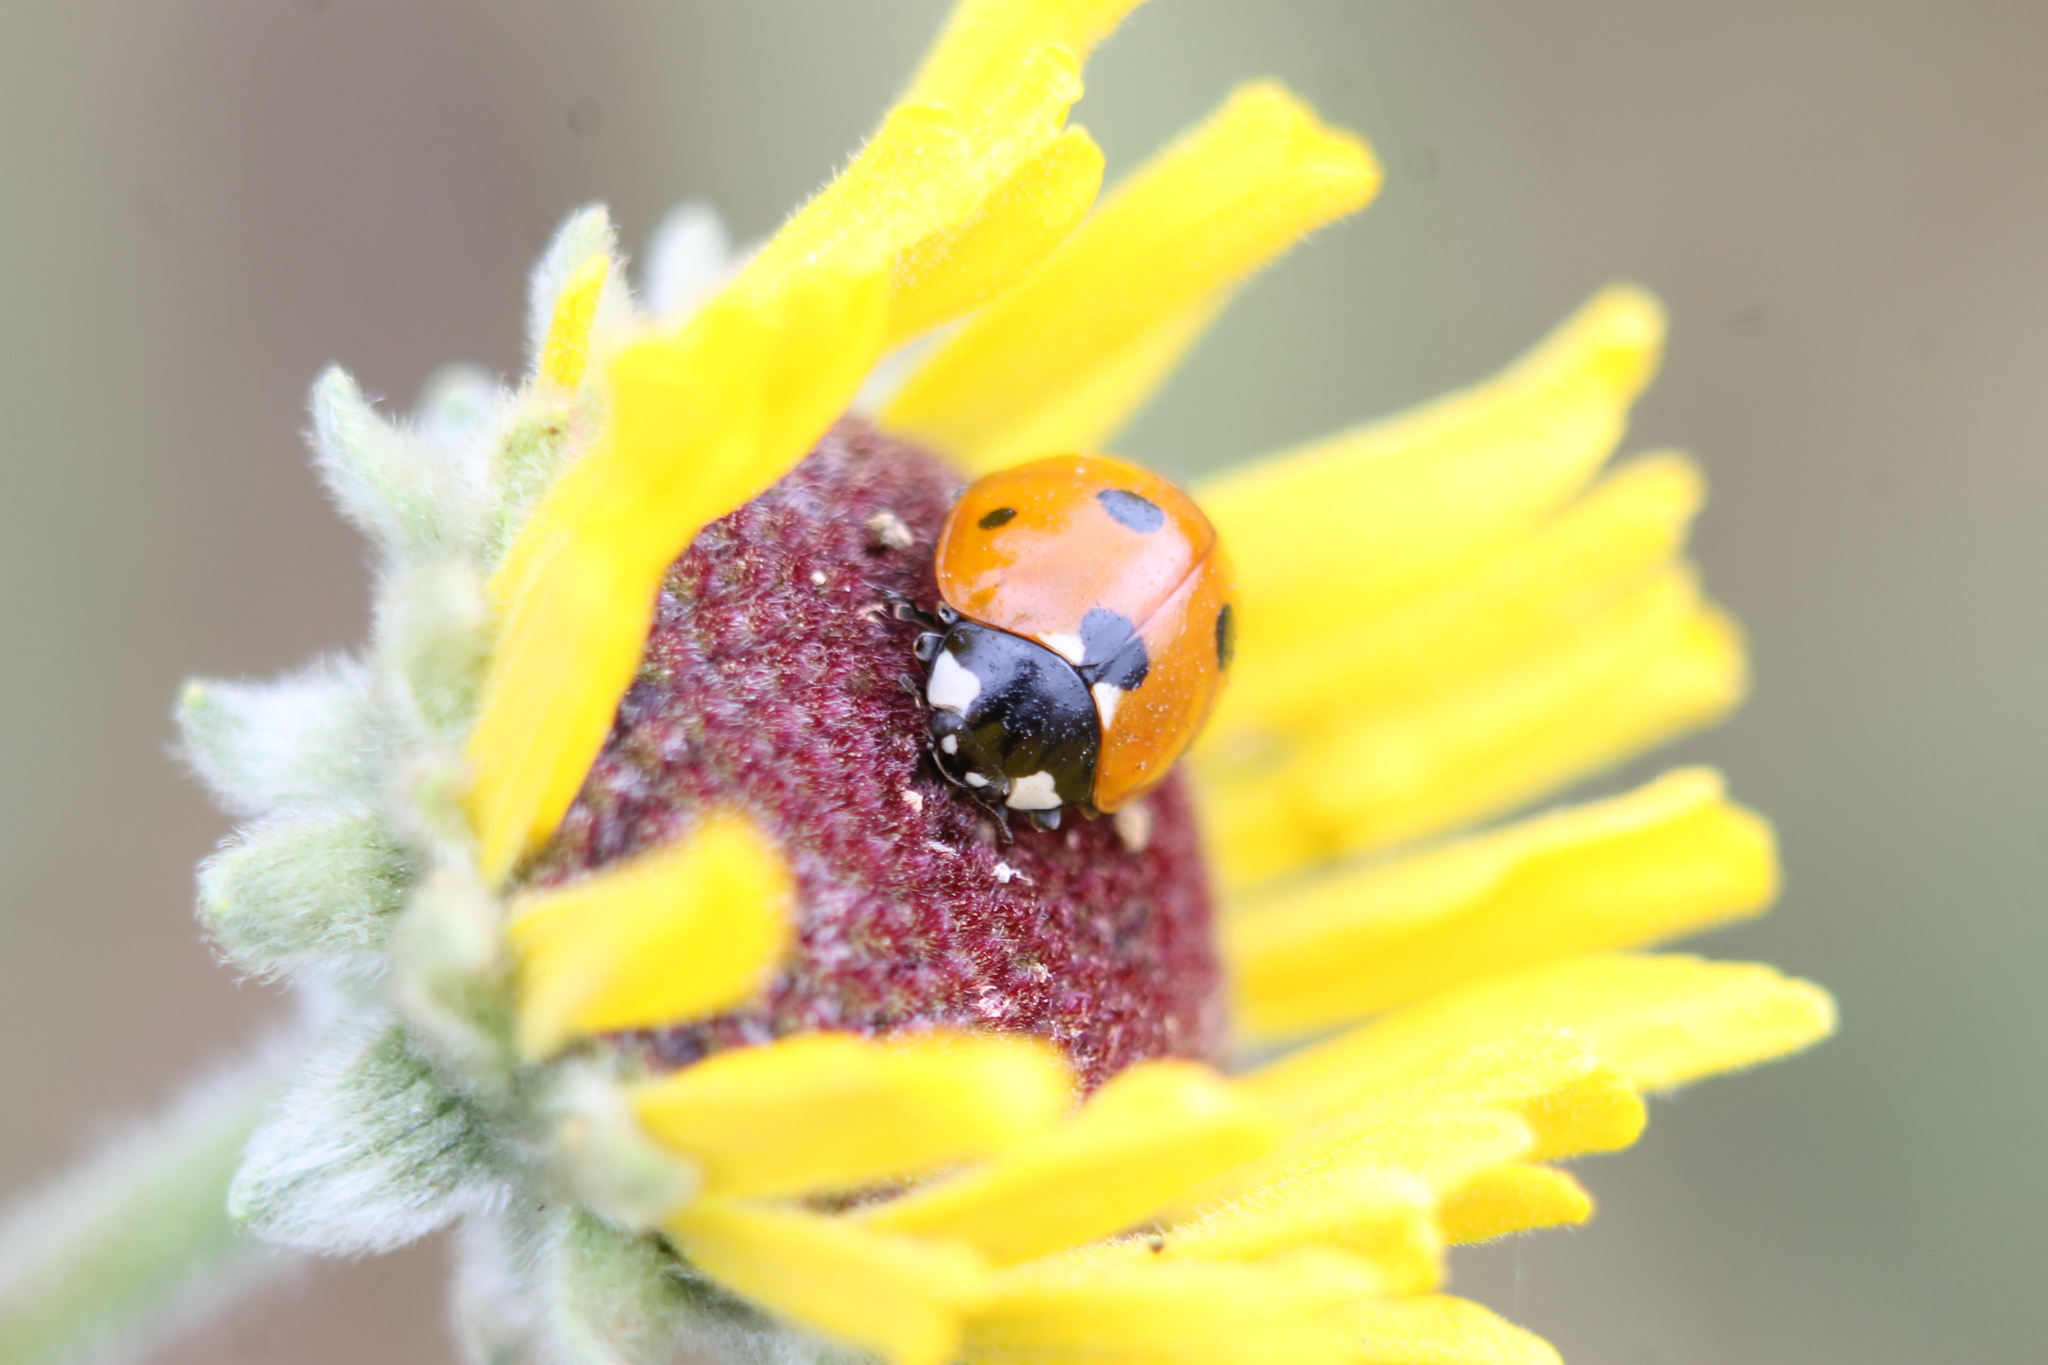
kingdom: Animalia
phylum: Arthropoda
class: Insecta
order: Coleoptera
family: Coccinellidae
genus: Coccinella
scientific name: Coccinella septempunctata
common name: Sevenspotted lady beetle
